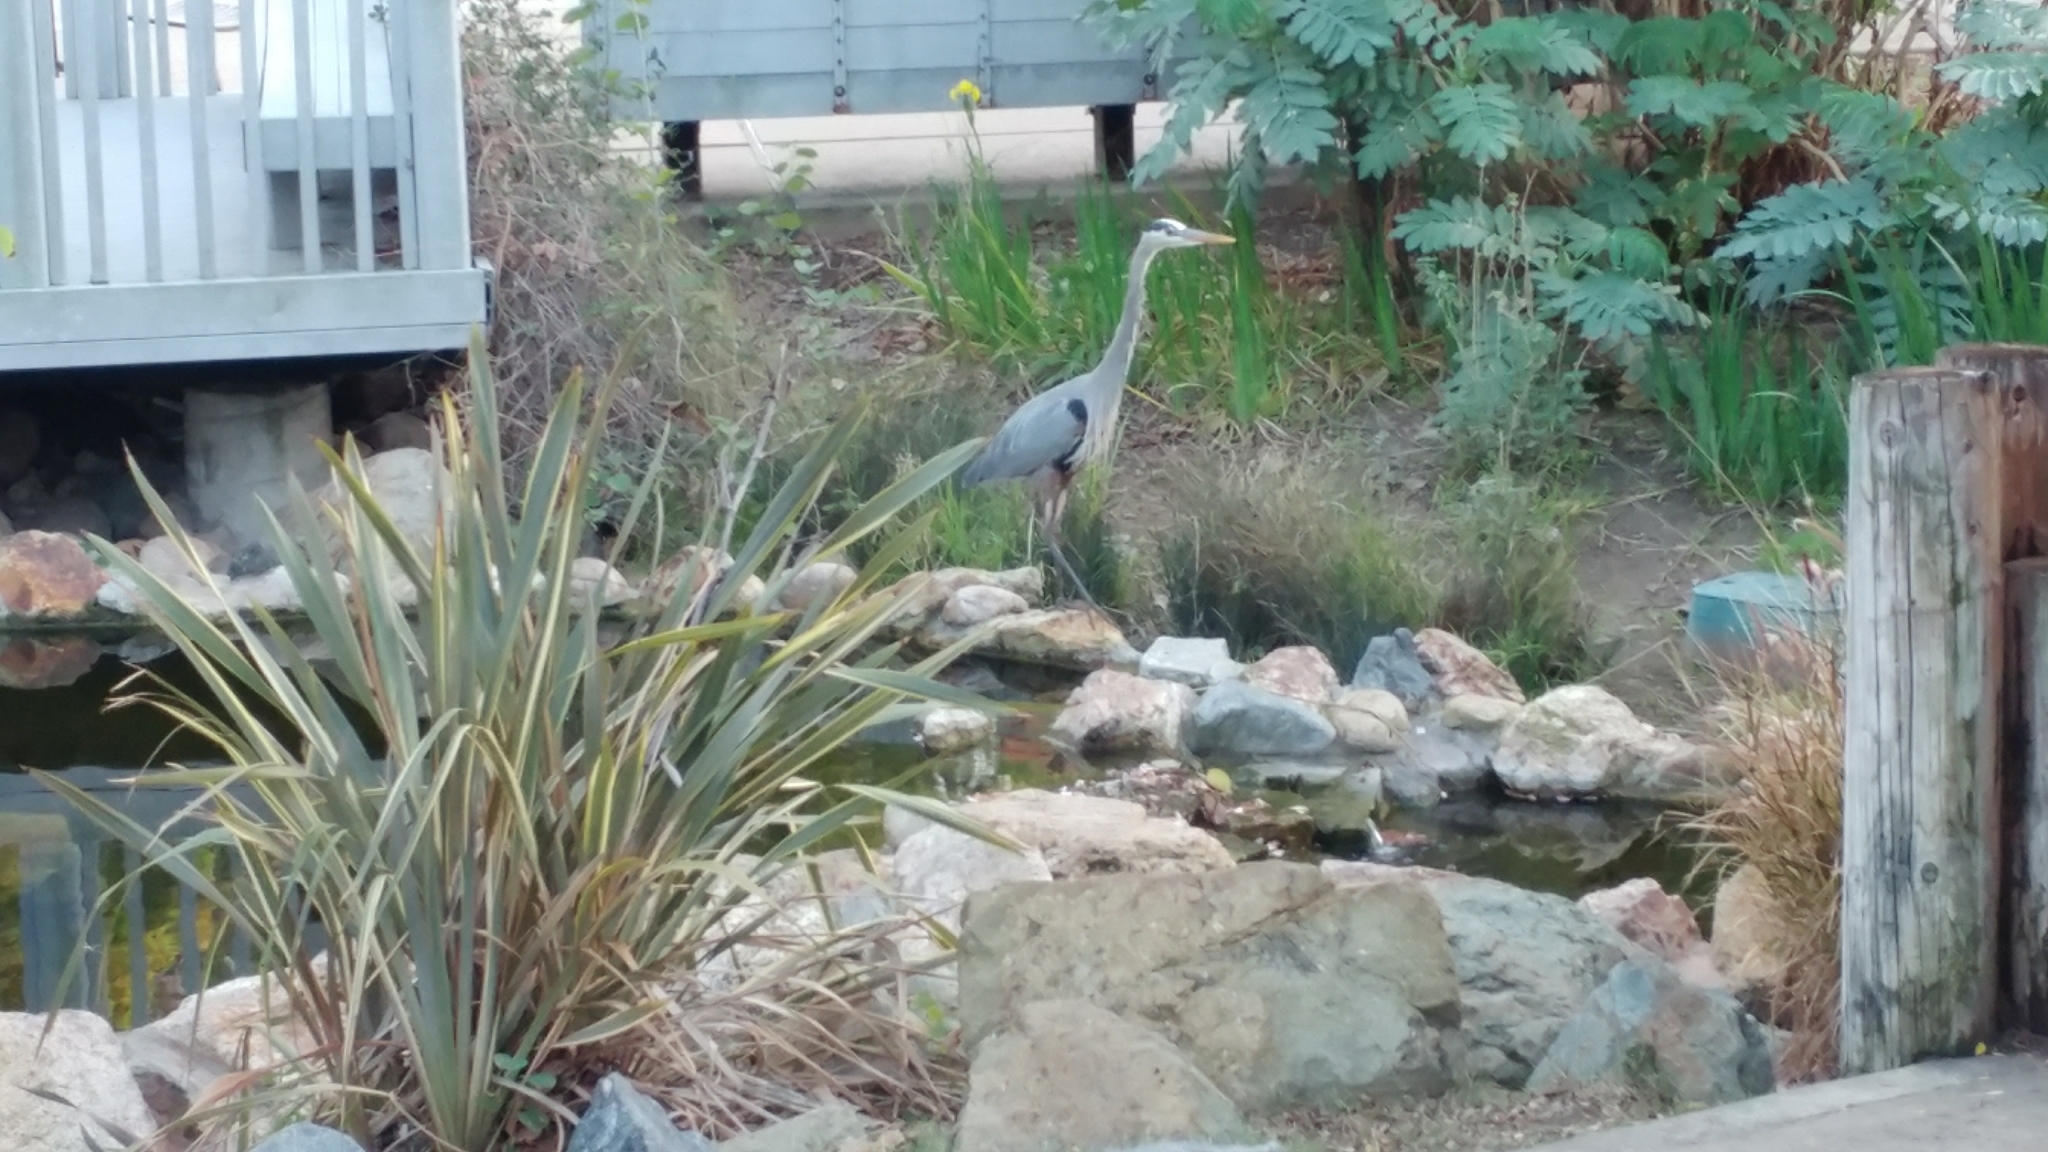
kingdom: Animalia
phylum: Chordata
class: Aves
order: Pelecaniformes
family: Ardeidae
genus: Ardea
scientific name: Ardea herodias
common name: Great blue heron
